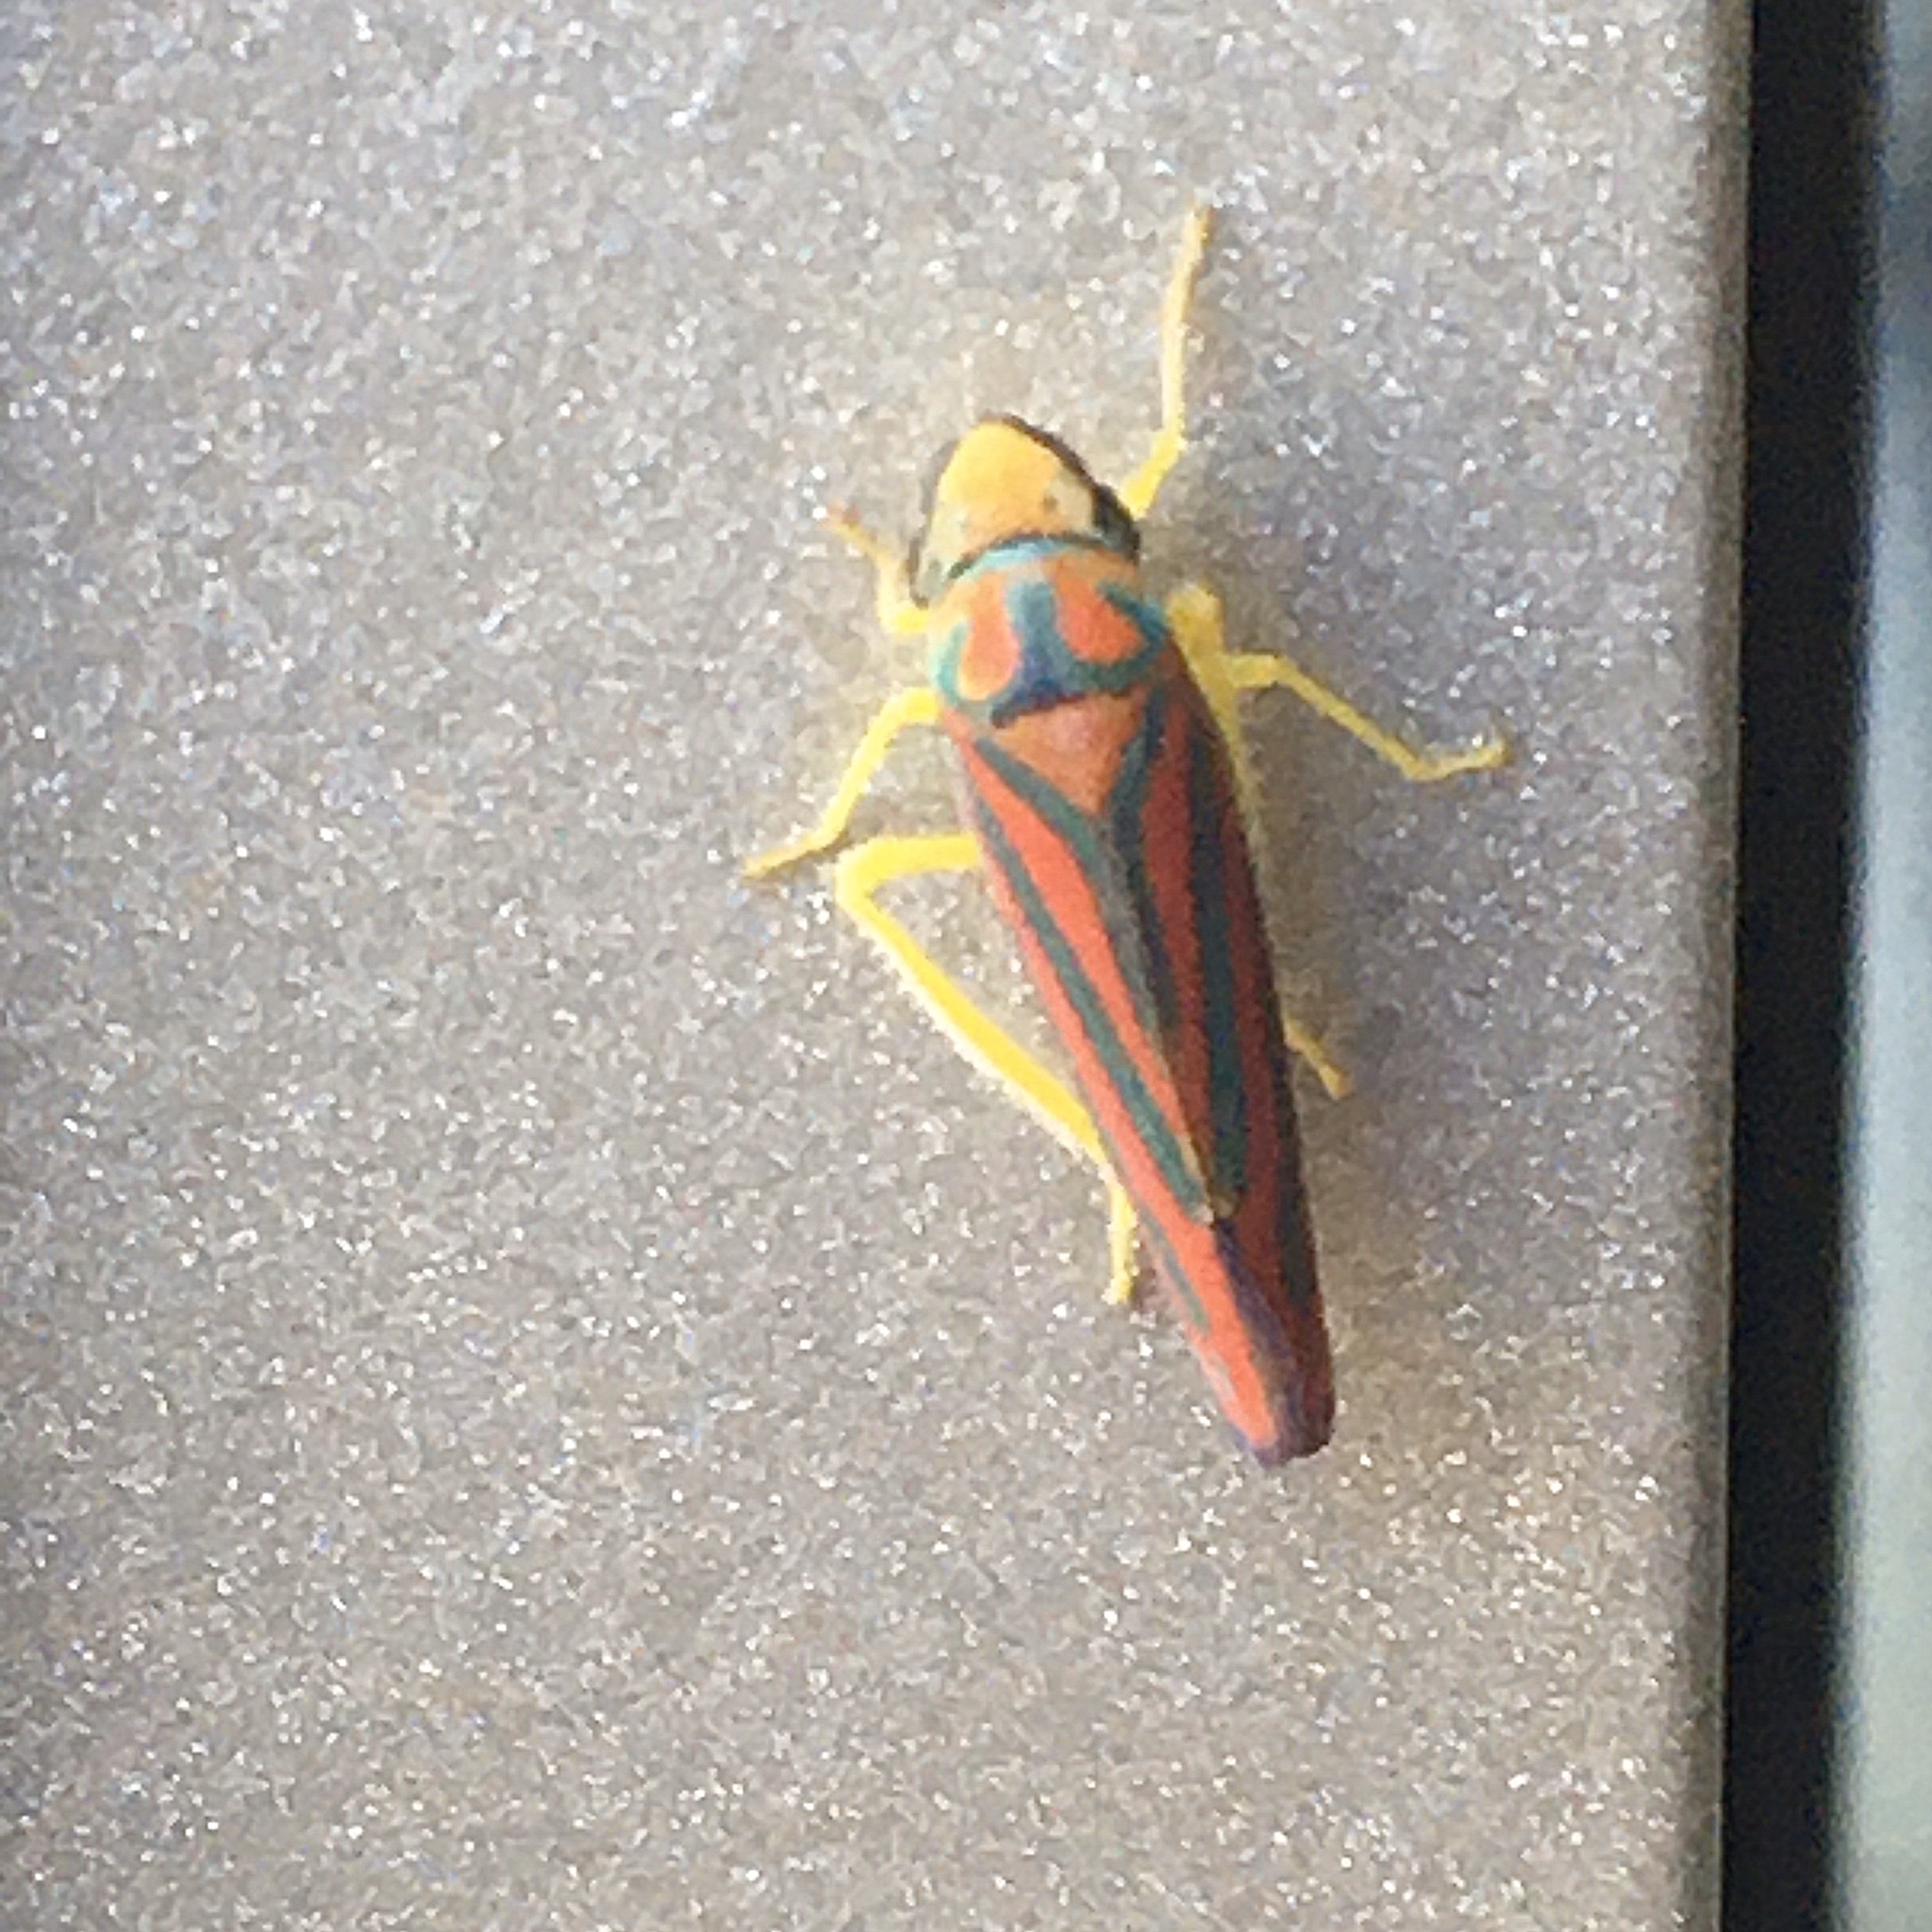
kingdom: Animalia
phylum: Arthropoda
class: Insecta
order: Hemiptera
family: Cicadellidae
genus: Graphocephala
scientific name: Graphocephala coccinea
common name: Candy-striped leafhopper
